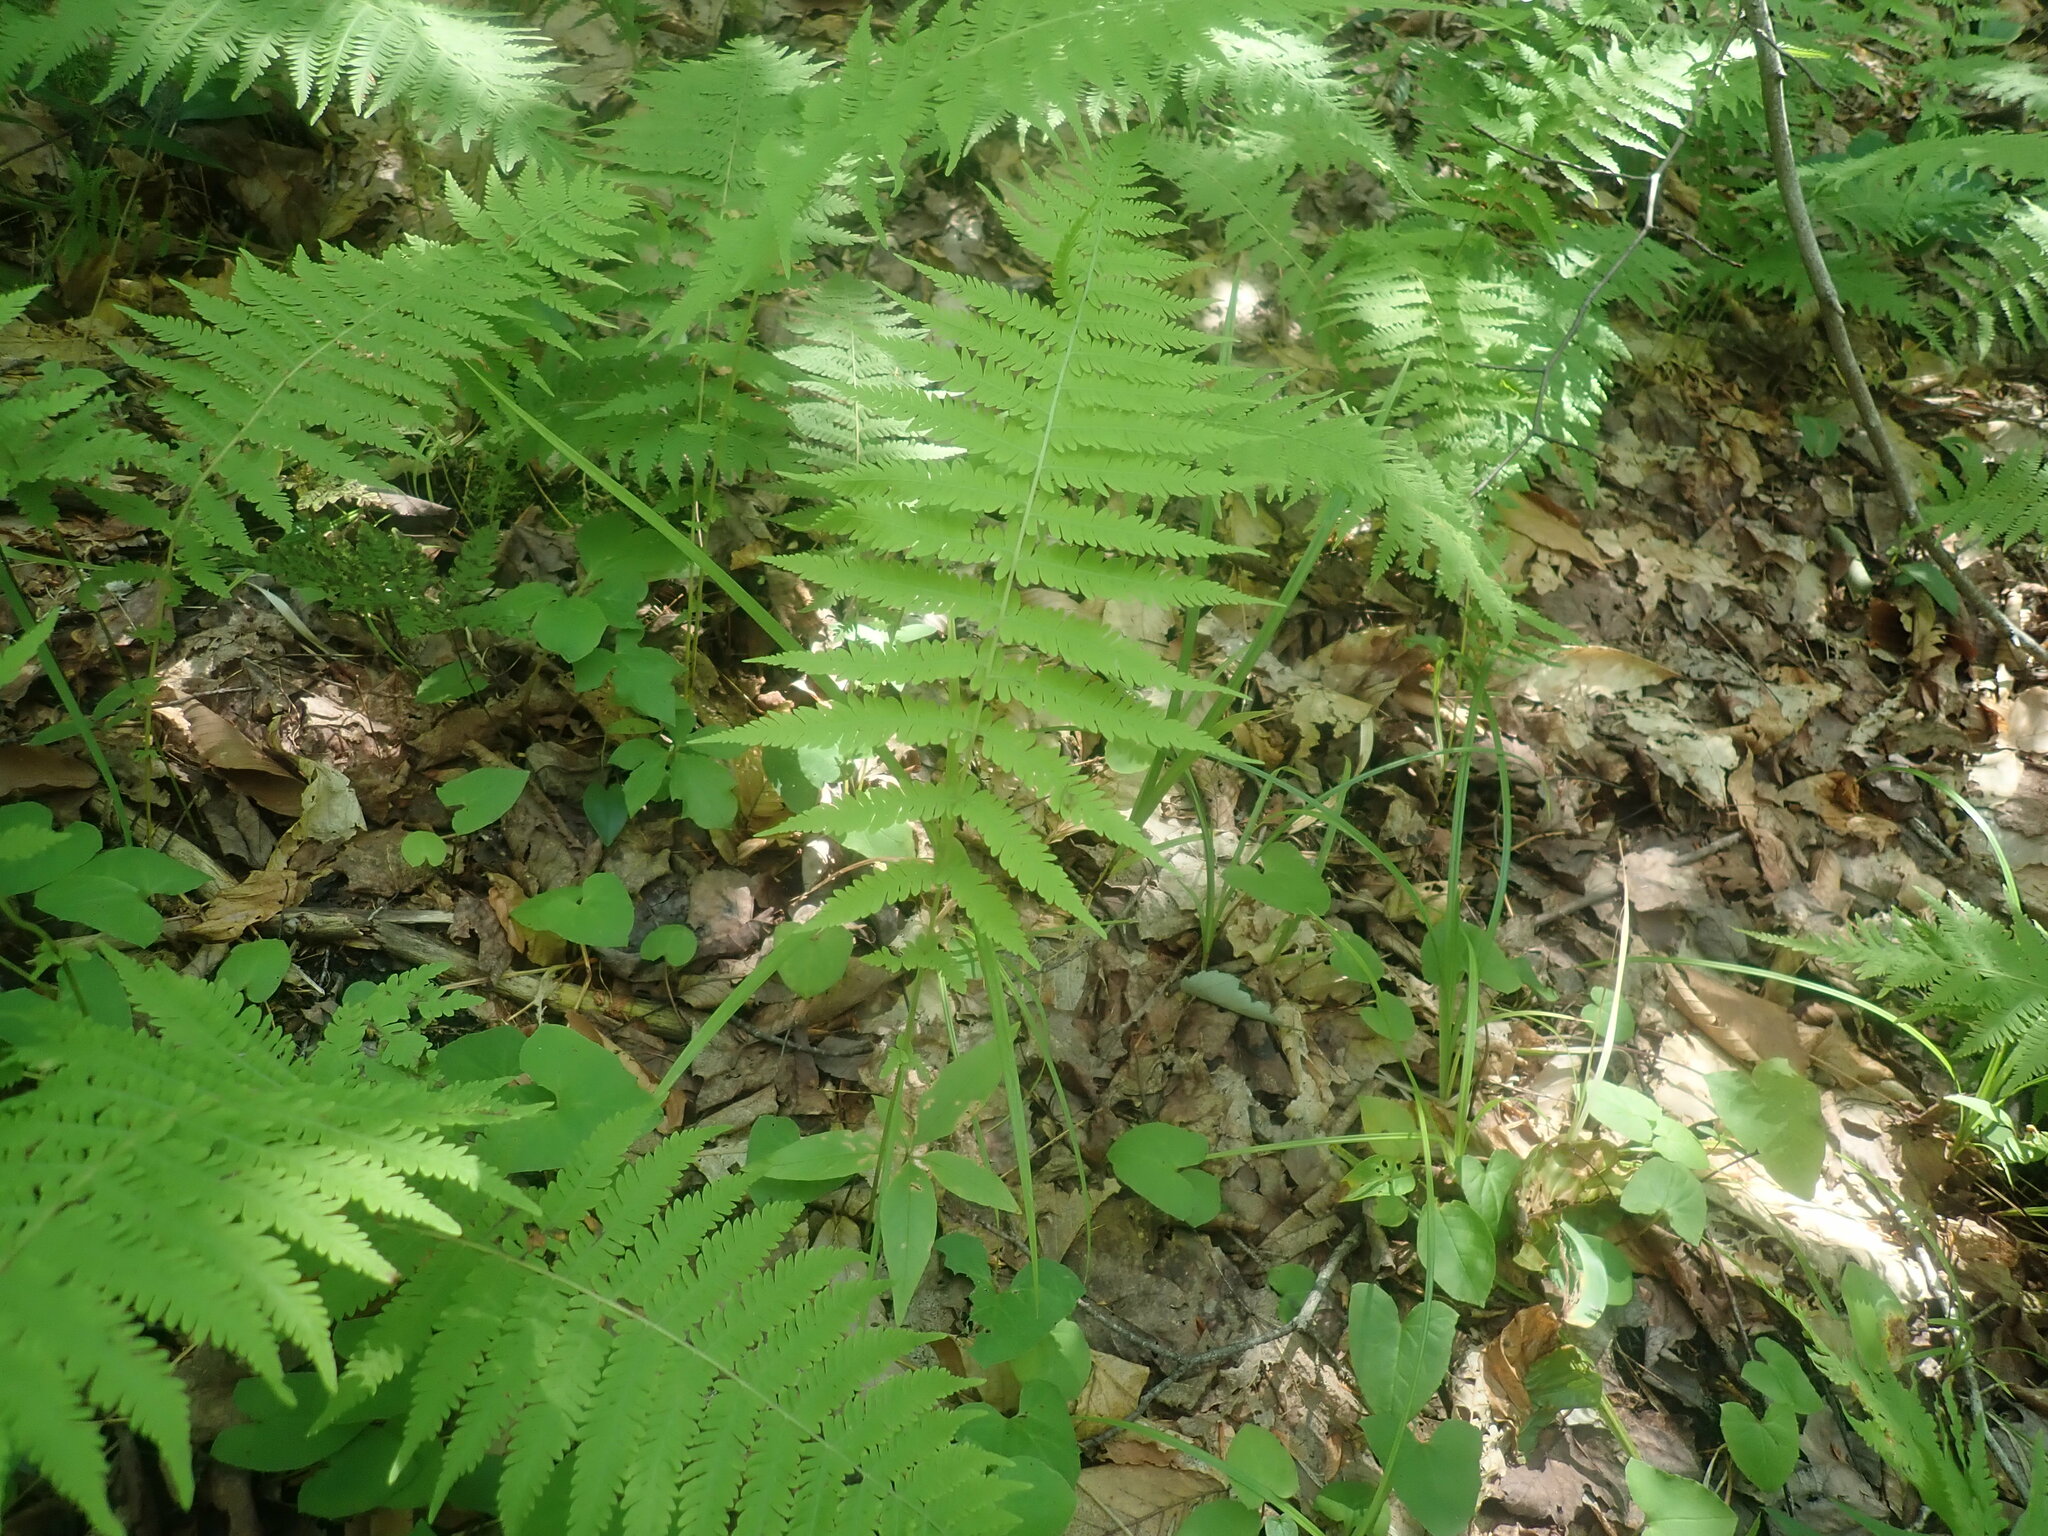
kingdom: Plantae
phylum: Tracheophyta
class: Polypodiopsida
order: Polypodiales
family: Thelypteridaceae
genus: Amauropelta
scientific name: Amauropelta noveboracensis
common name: New york fern
